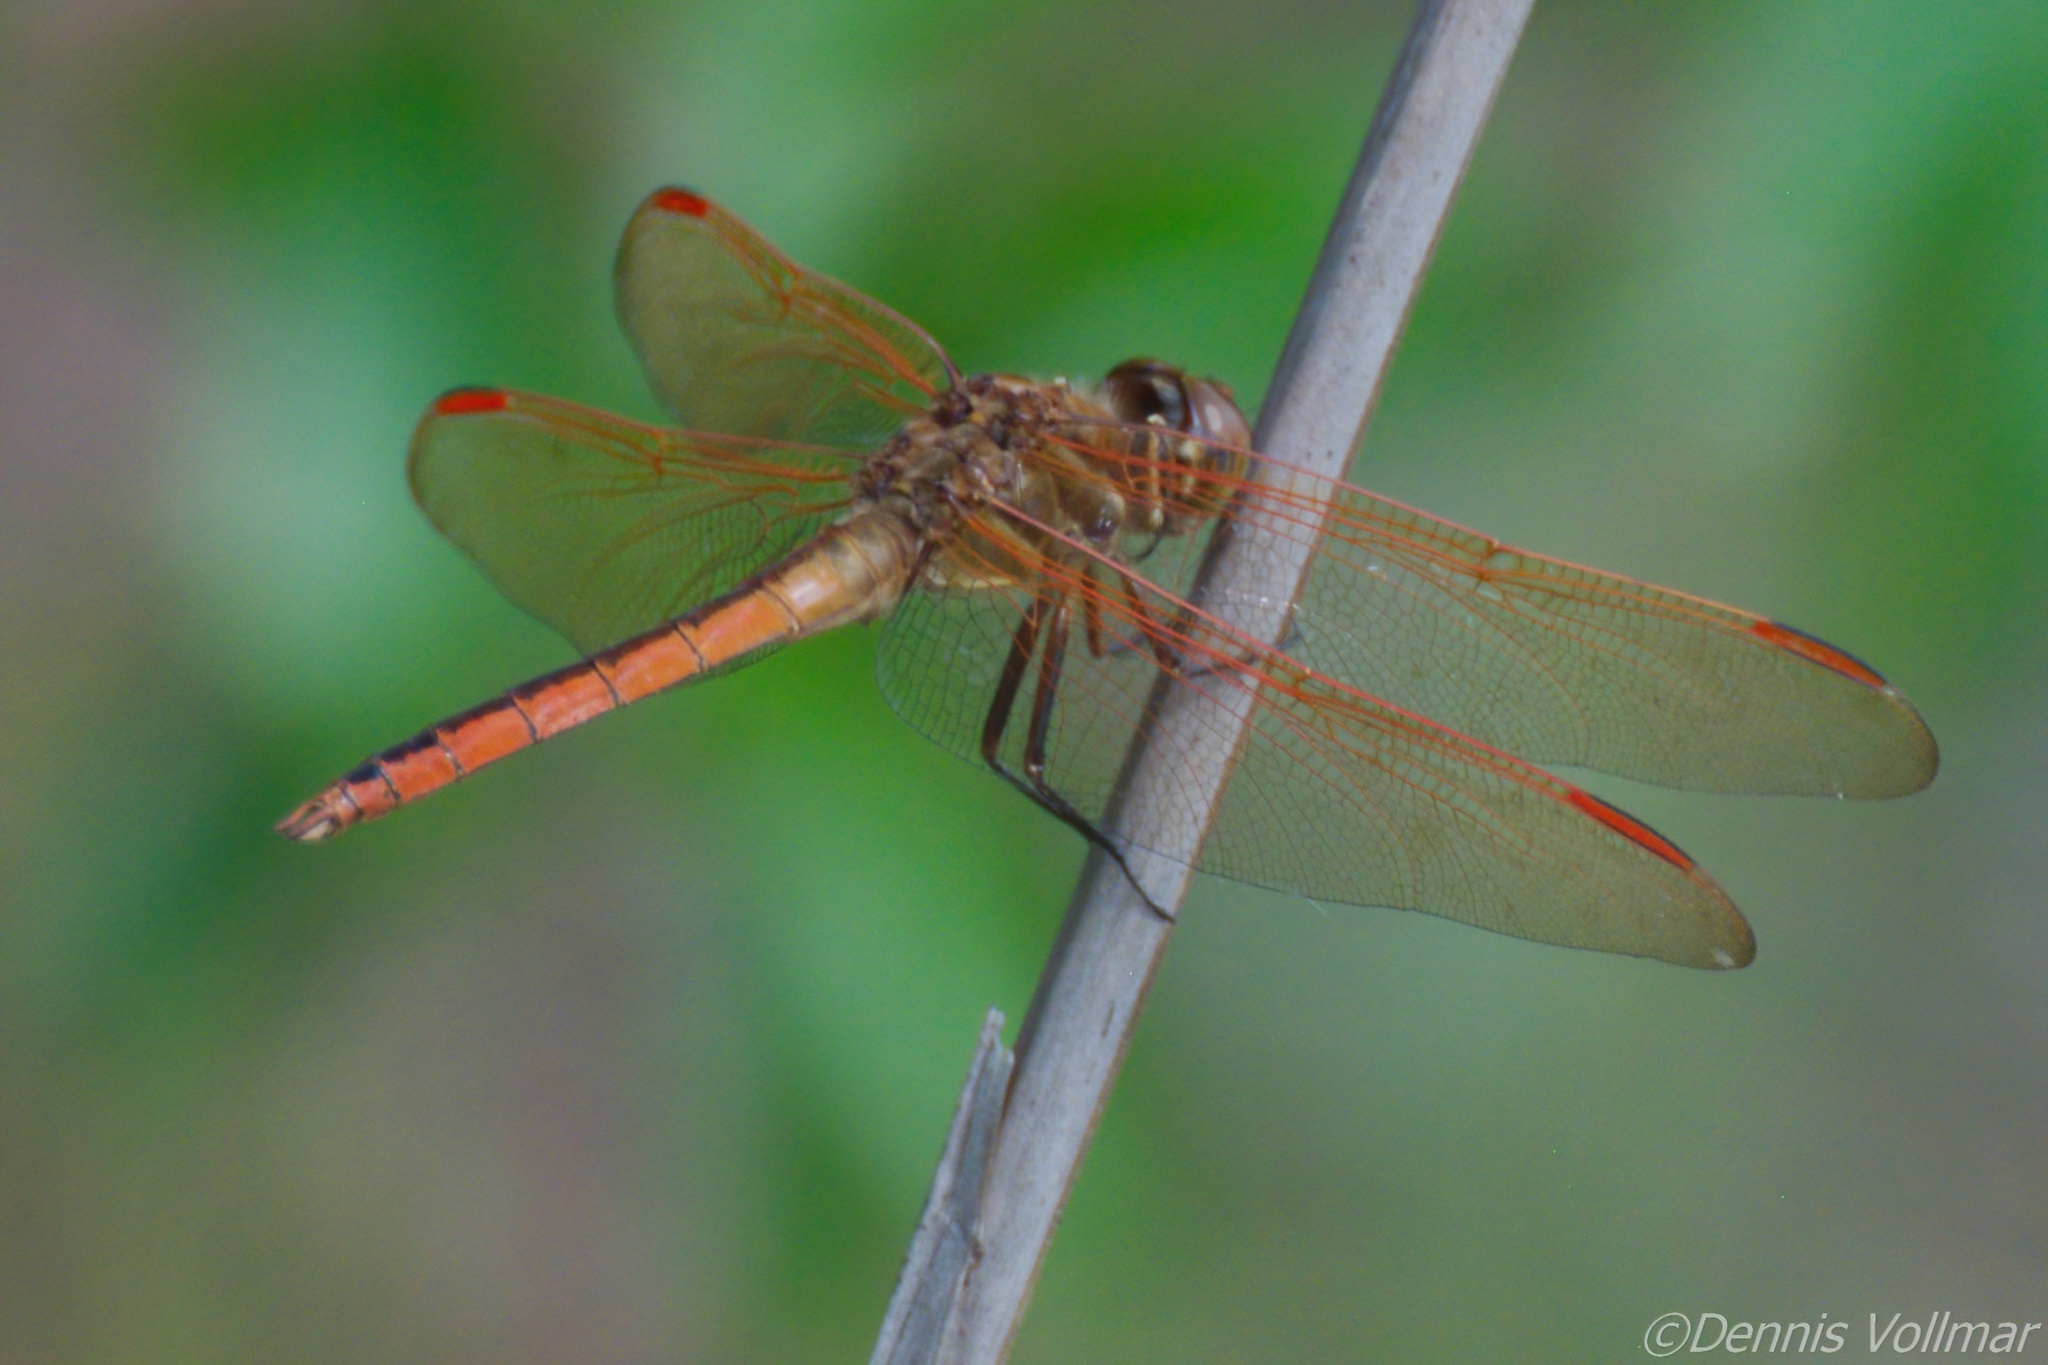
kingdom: Animalia
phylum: Arthropoda
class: Insecta
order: Odonata
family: Libellulidae
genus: Libellula
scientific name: Libellula auripennis
